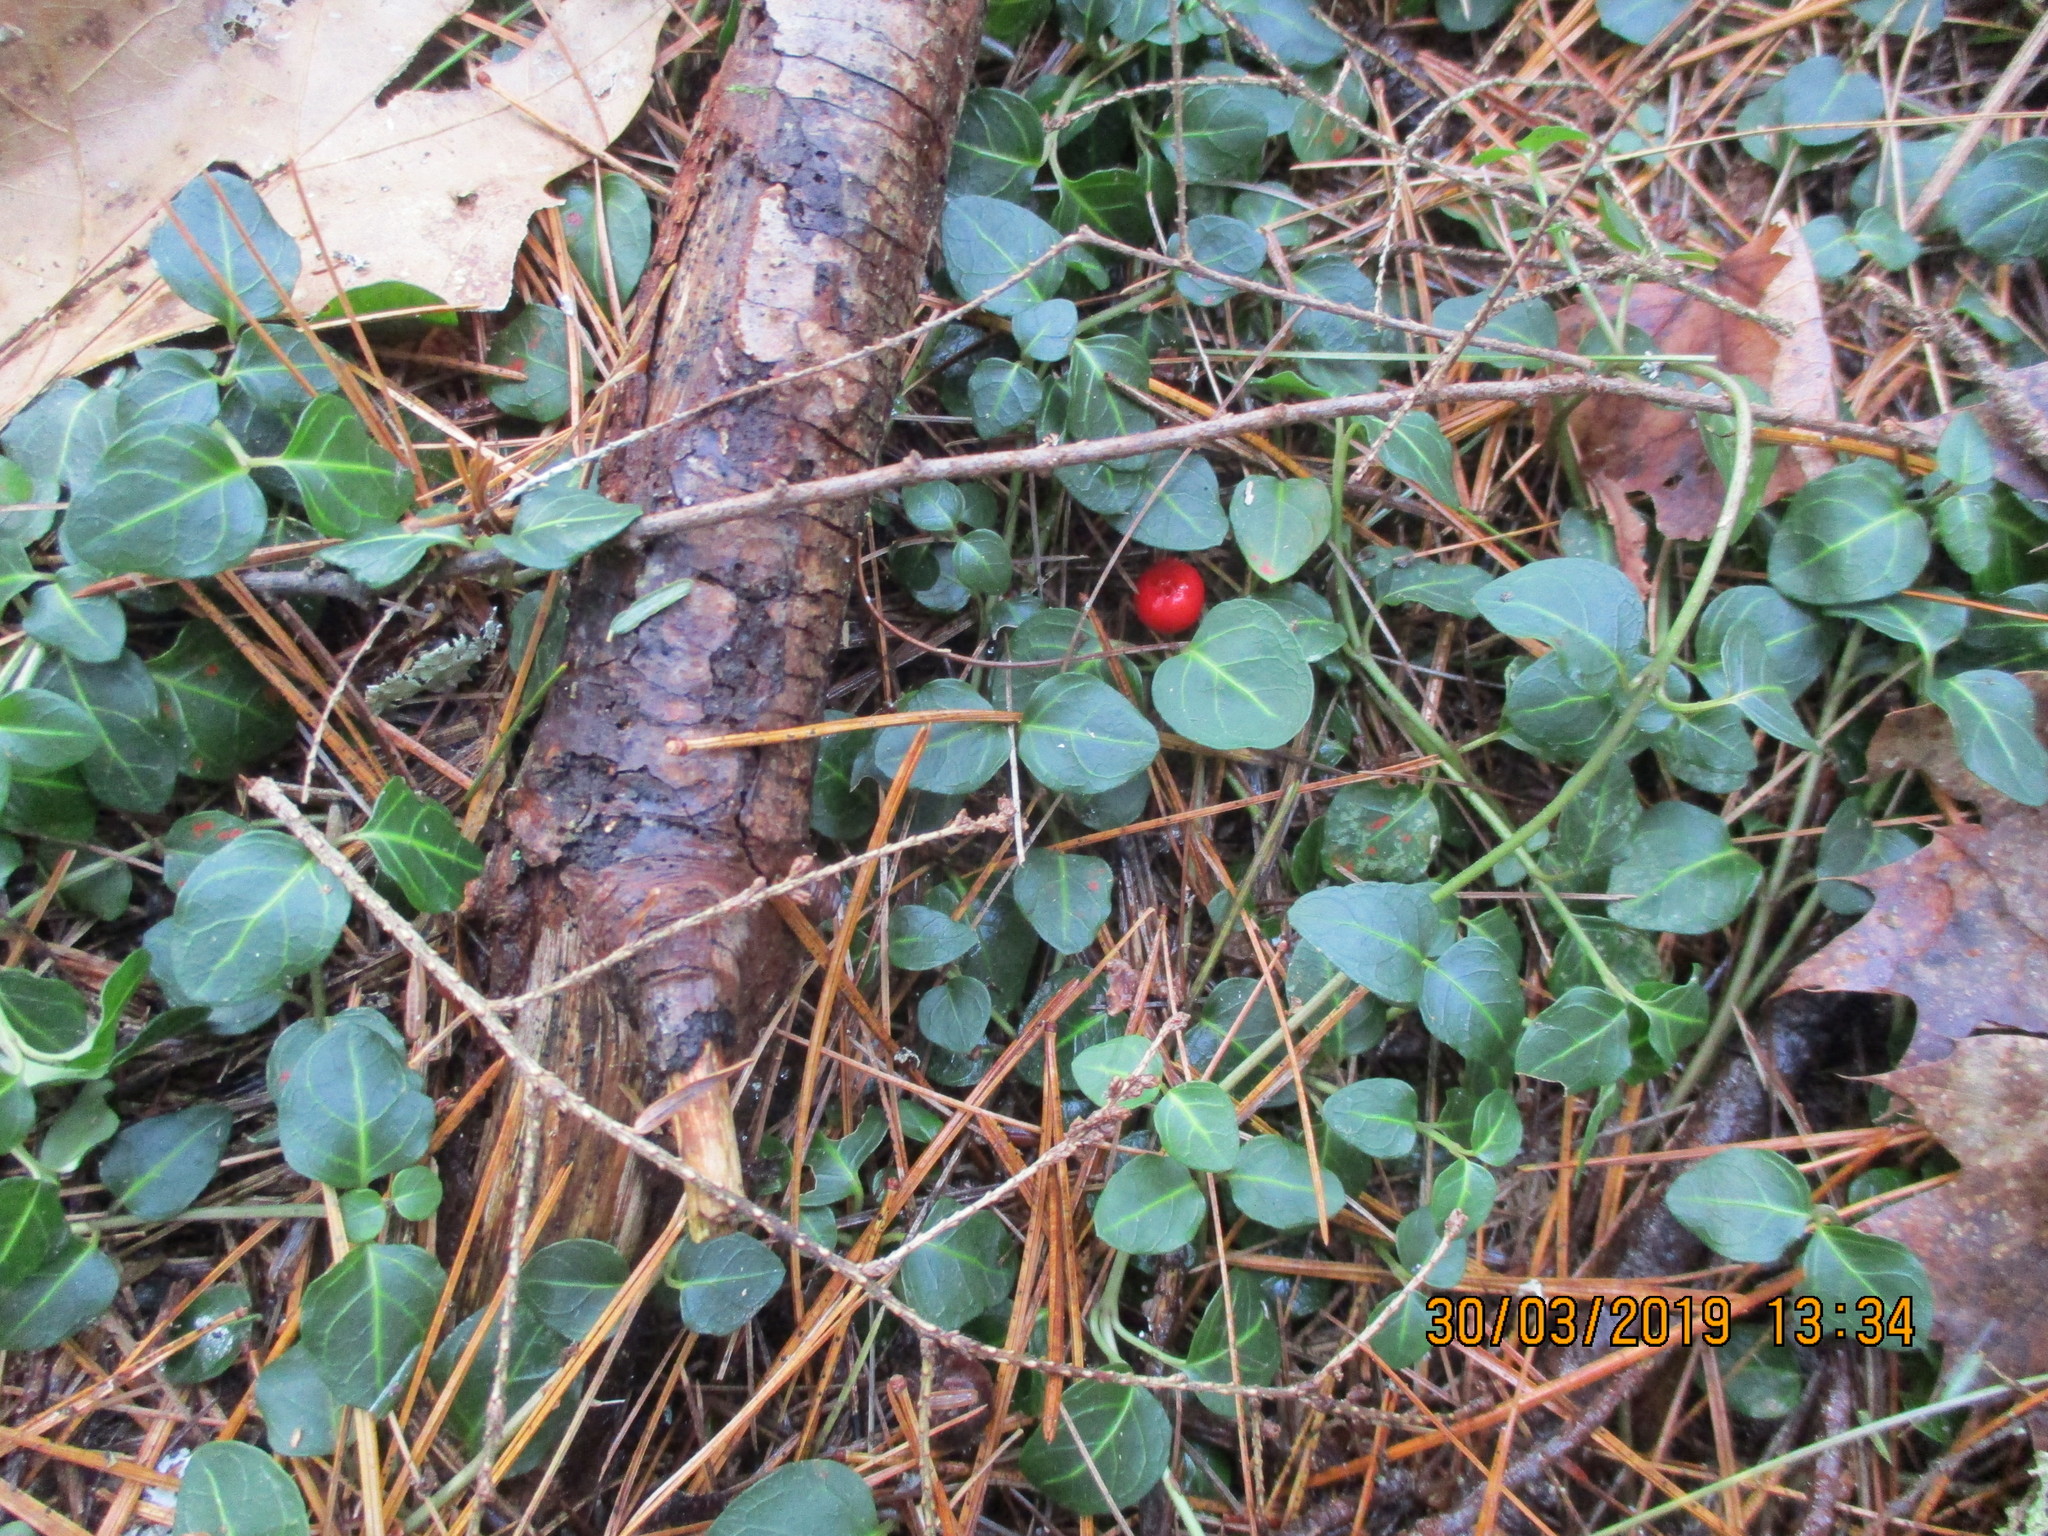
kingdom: Plantae
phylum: Tracheophyta
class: Magnoliopsida
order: Gentianales
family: Rubiaceae
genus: Mitchella
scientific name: Mitchella repens
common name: Partridge-berry
